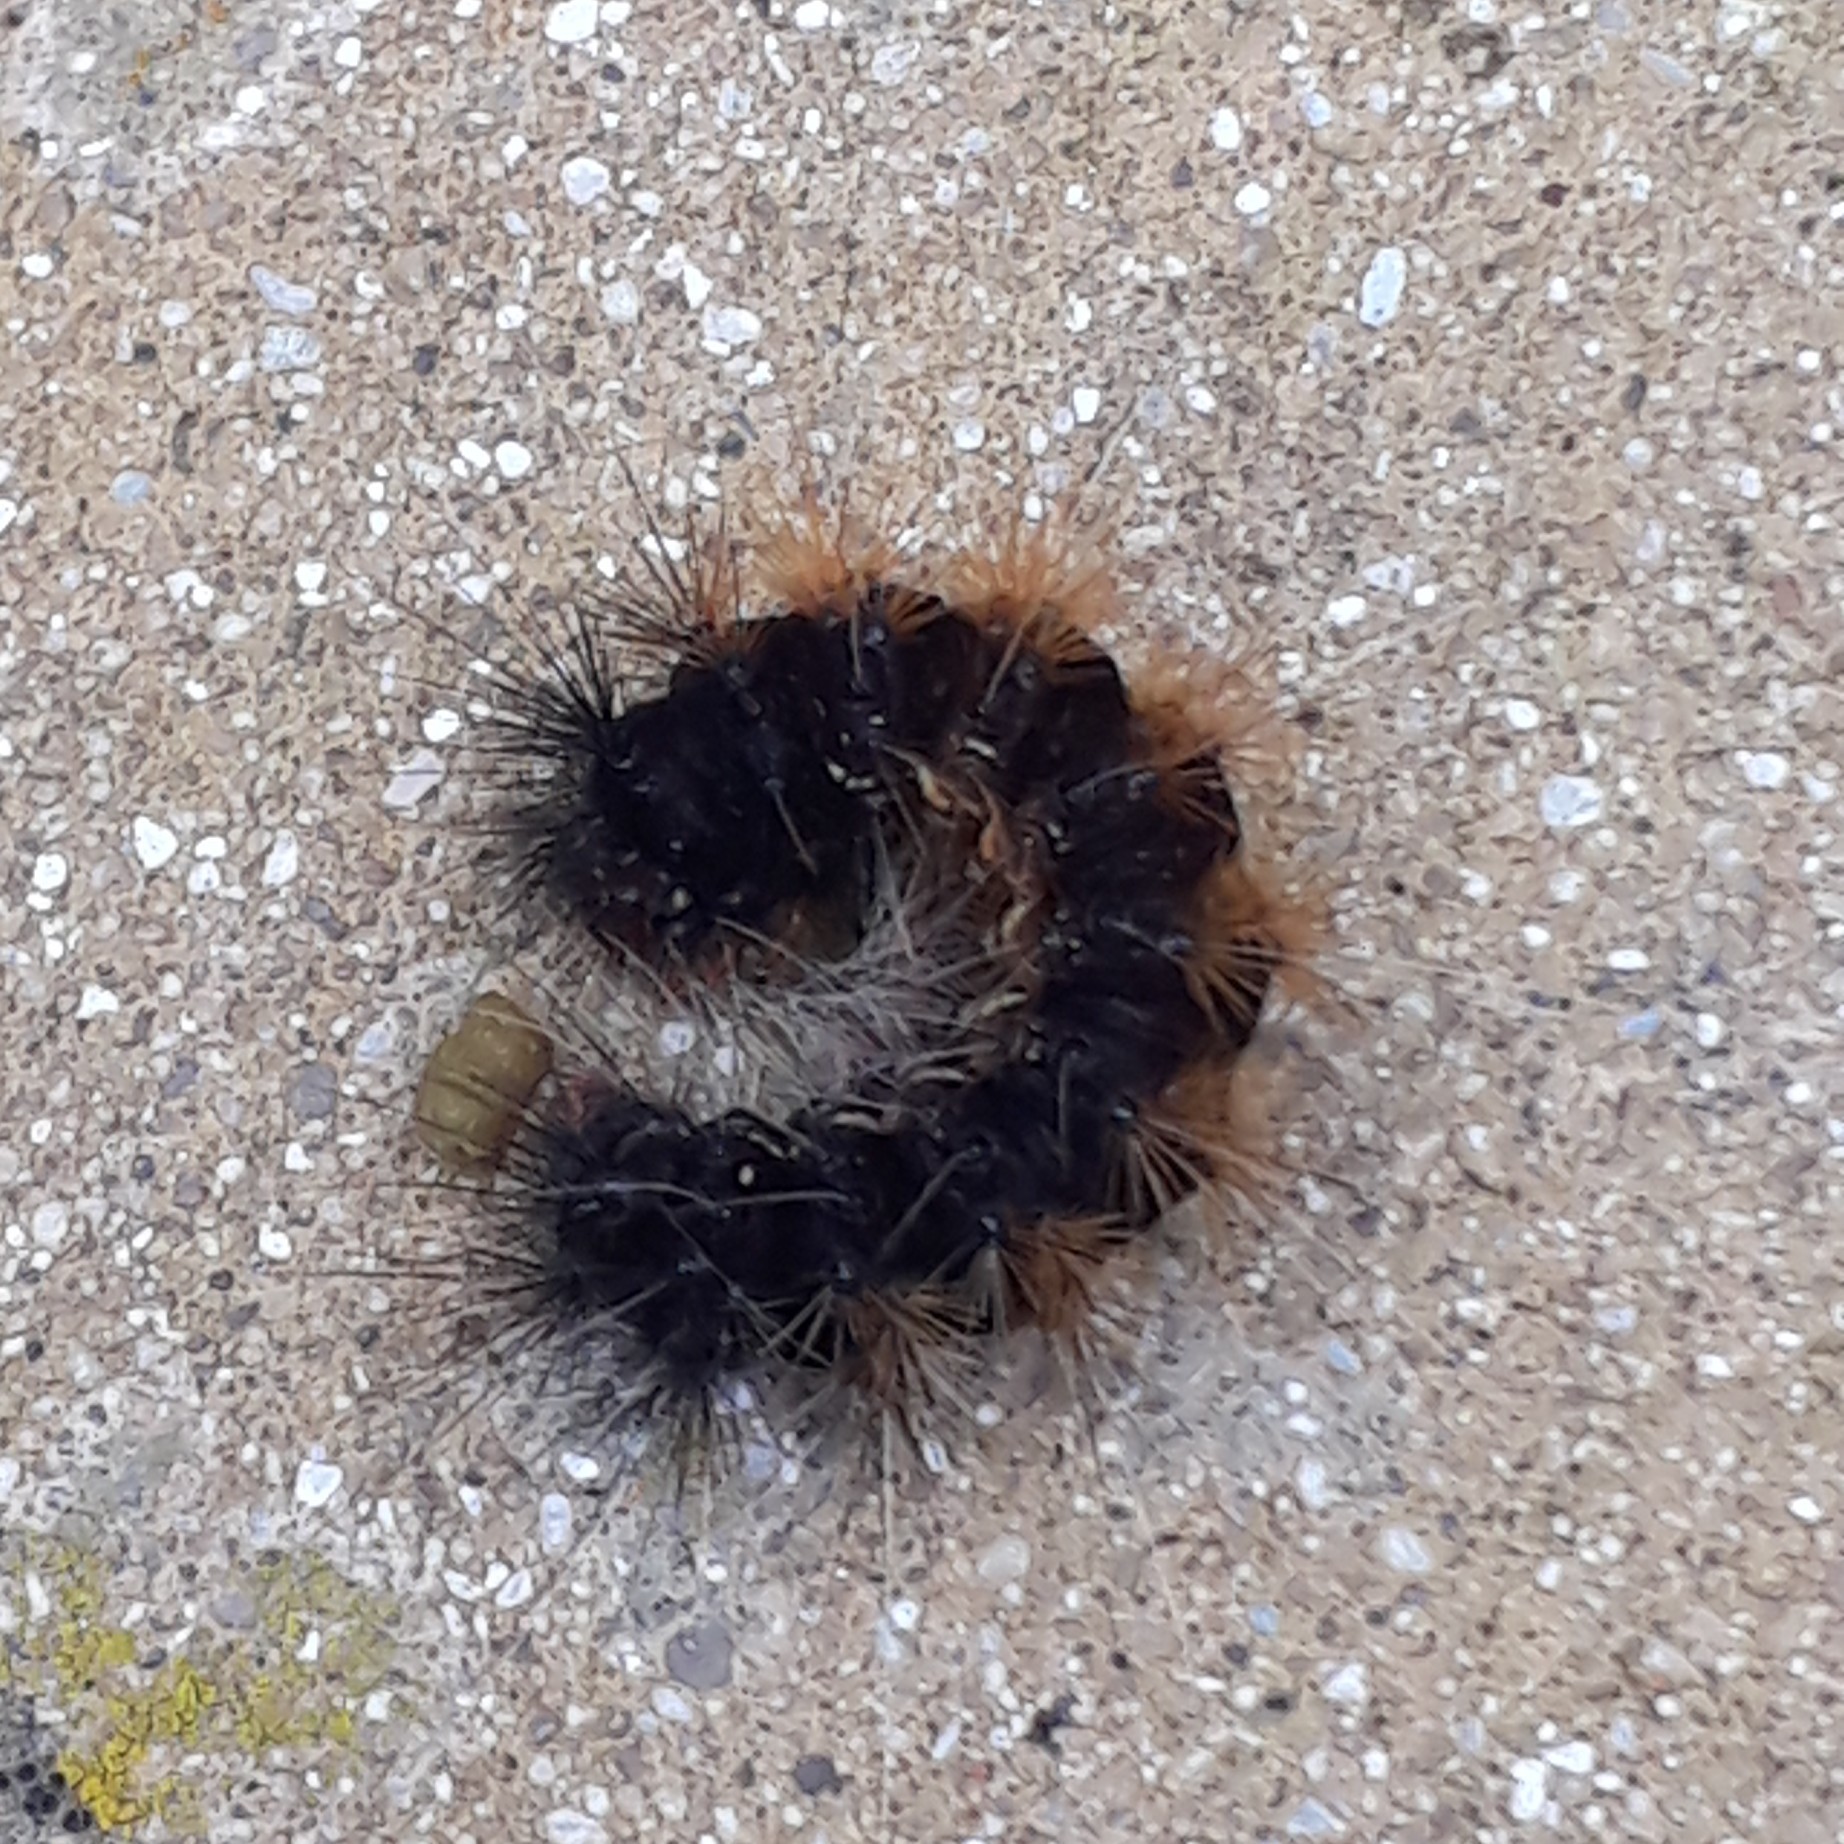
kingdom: Animalia
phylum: Arthropoda
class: Insecta
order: Lepidoptera
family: Erebidae
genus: Rhodogastria
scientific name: Rhodogastria amasis
